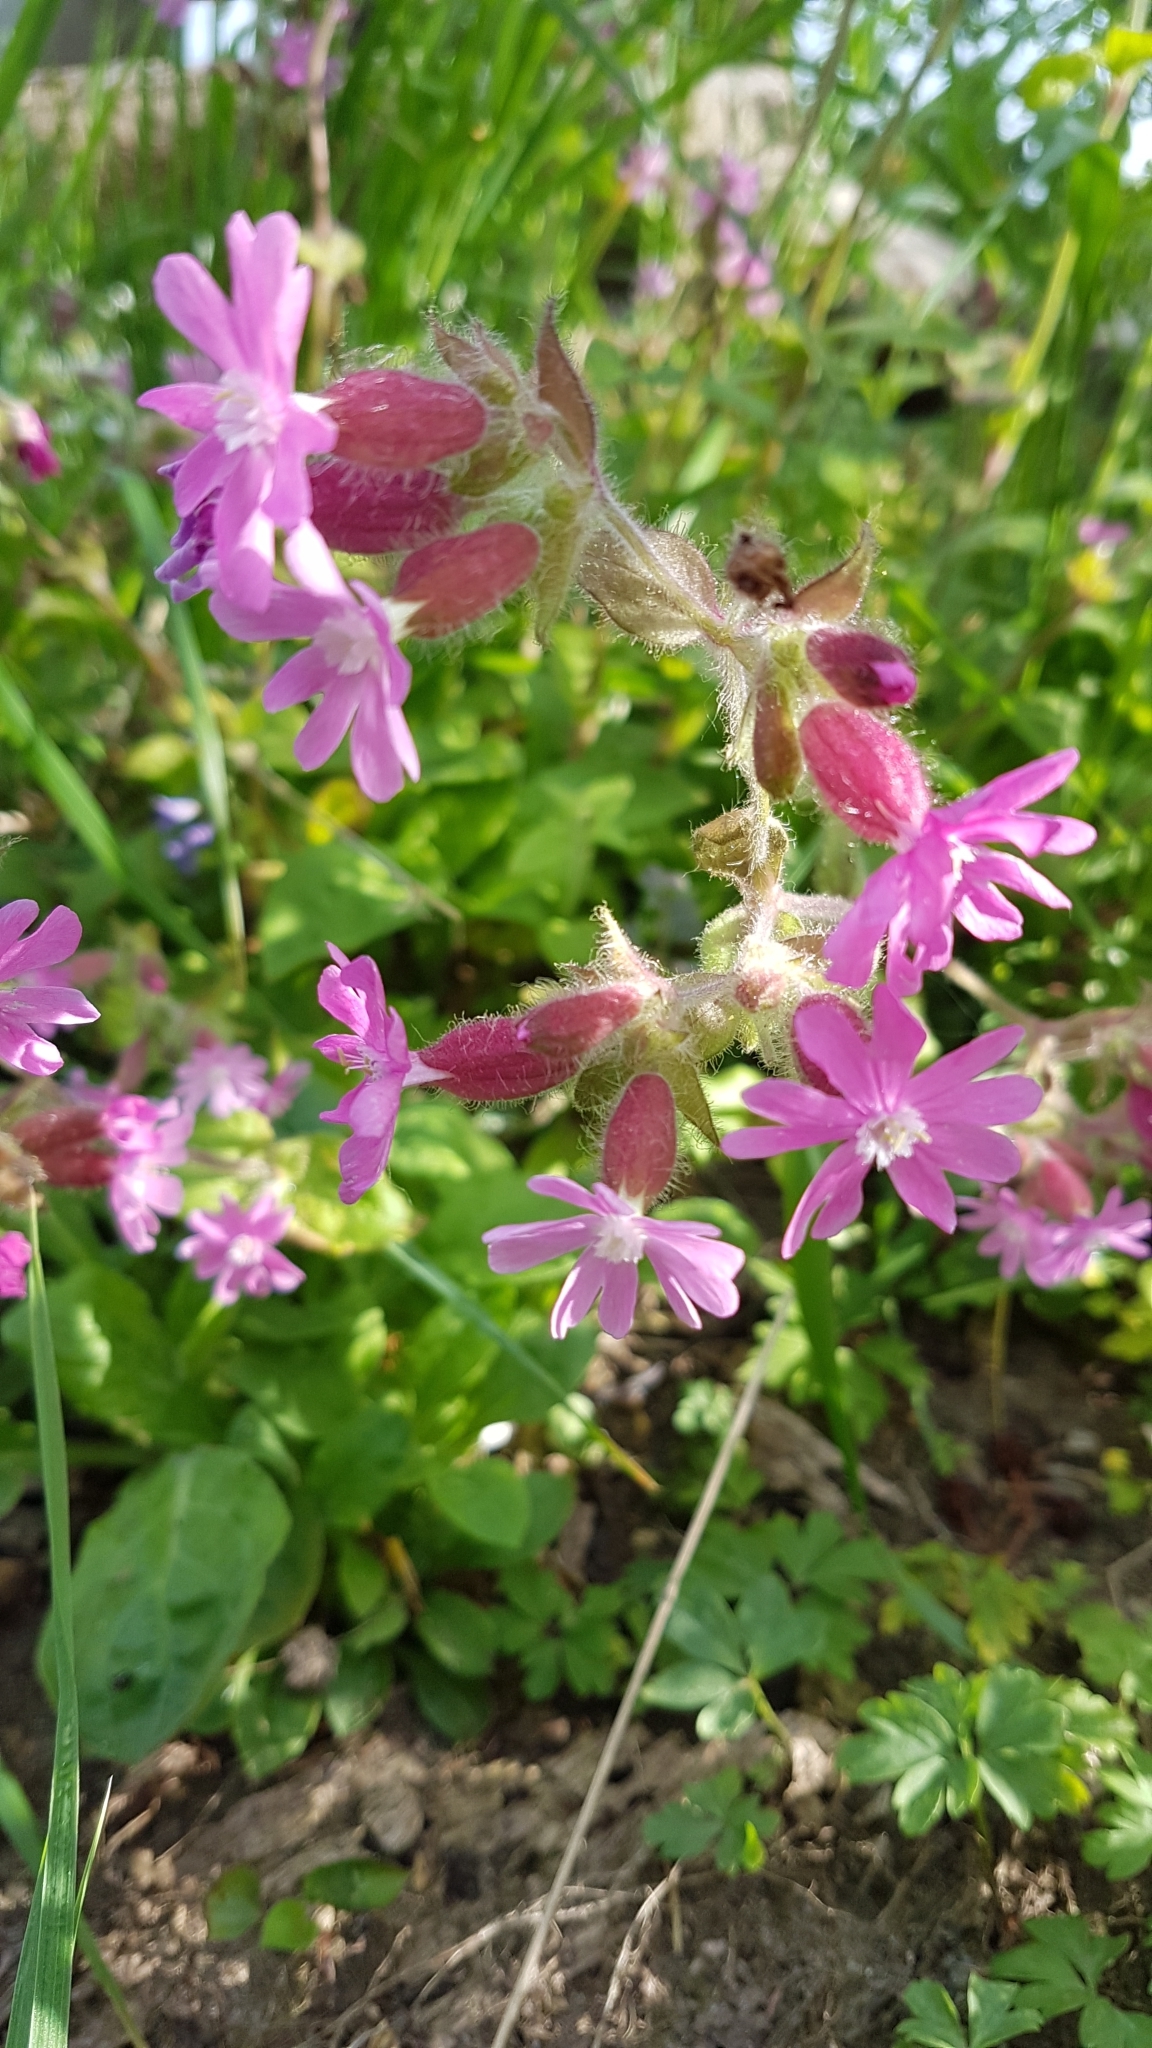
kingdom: Plantae
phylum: Tracheophyta
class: Magnoliopsida
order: Caryophyllales
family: Caryophyllaceae
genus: Silene
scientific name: Silene dioica
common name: Red campion
